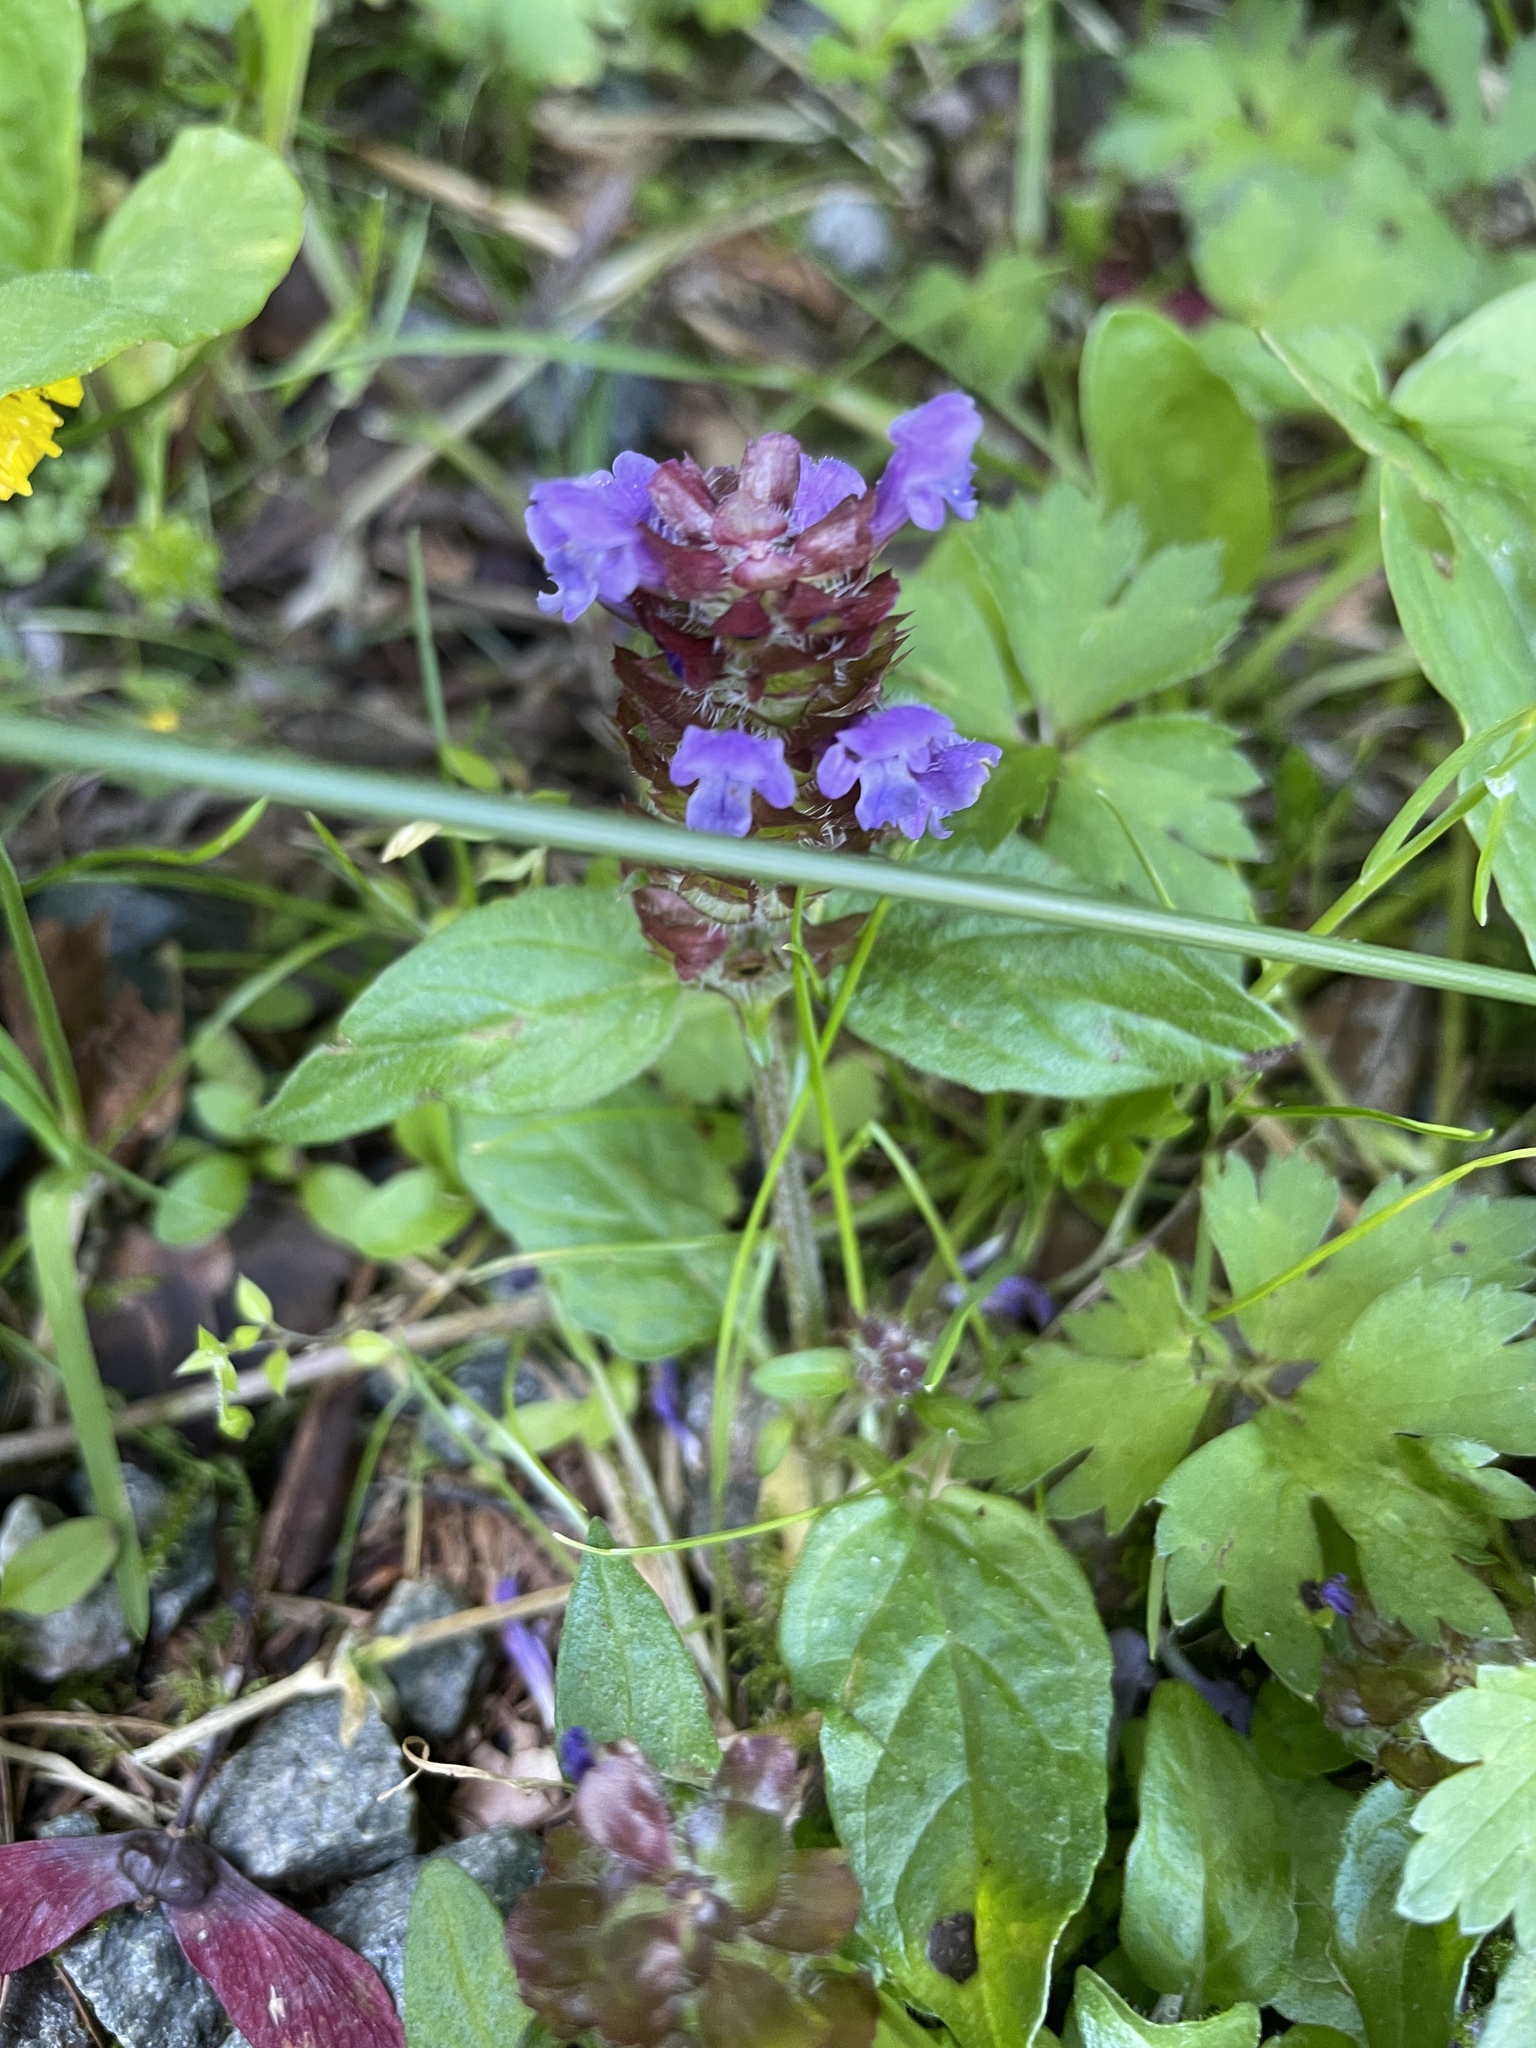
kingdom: Plantae
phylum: Tracheophyta
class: Magnoliopsida
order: Lamiales
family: Lamiaceae
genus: Prunella
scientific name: Prunella vulgaris
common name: Heal-all
